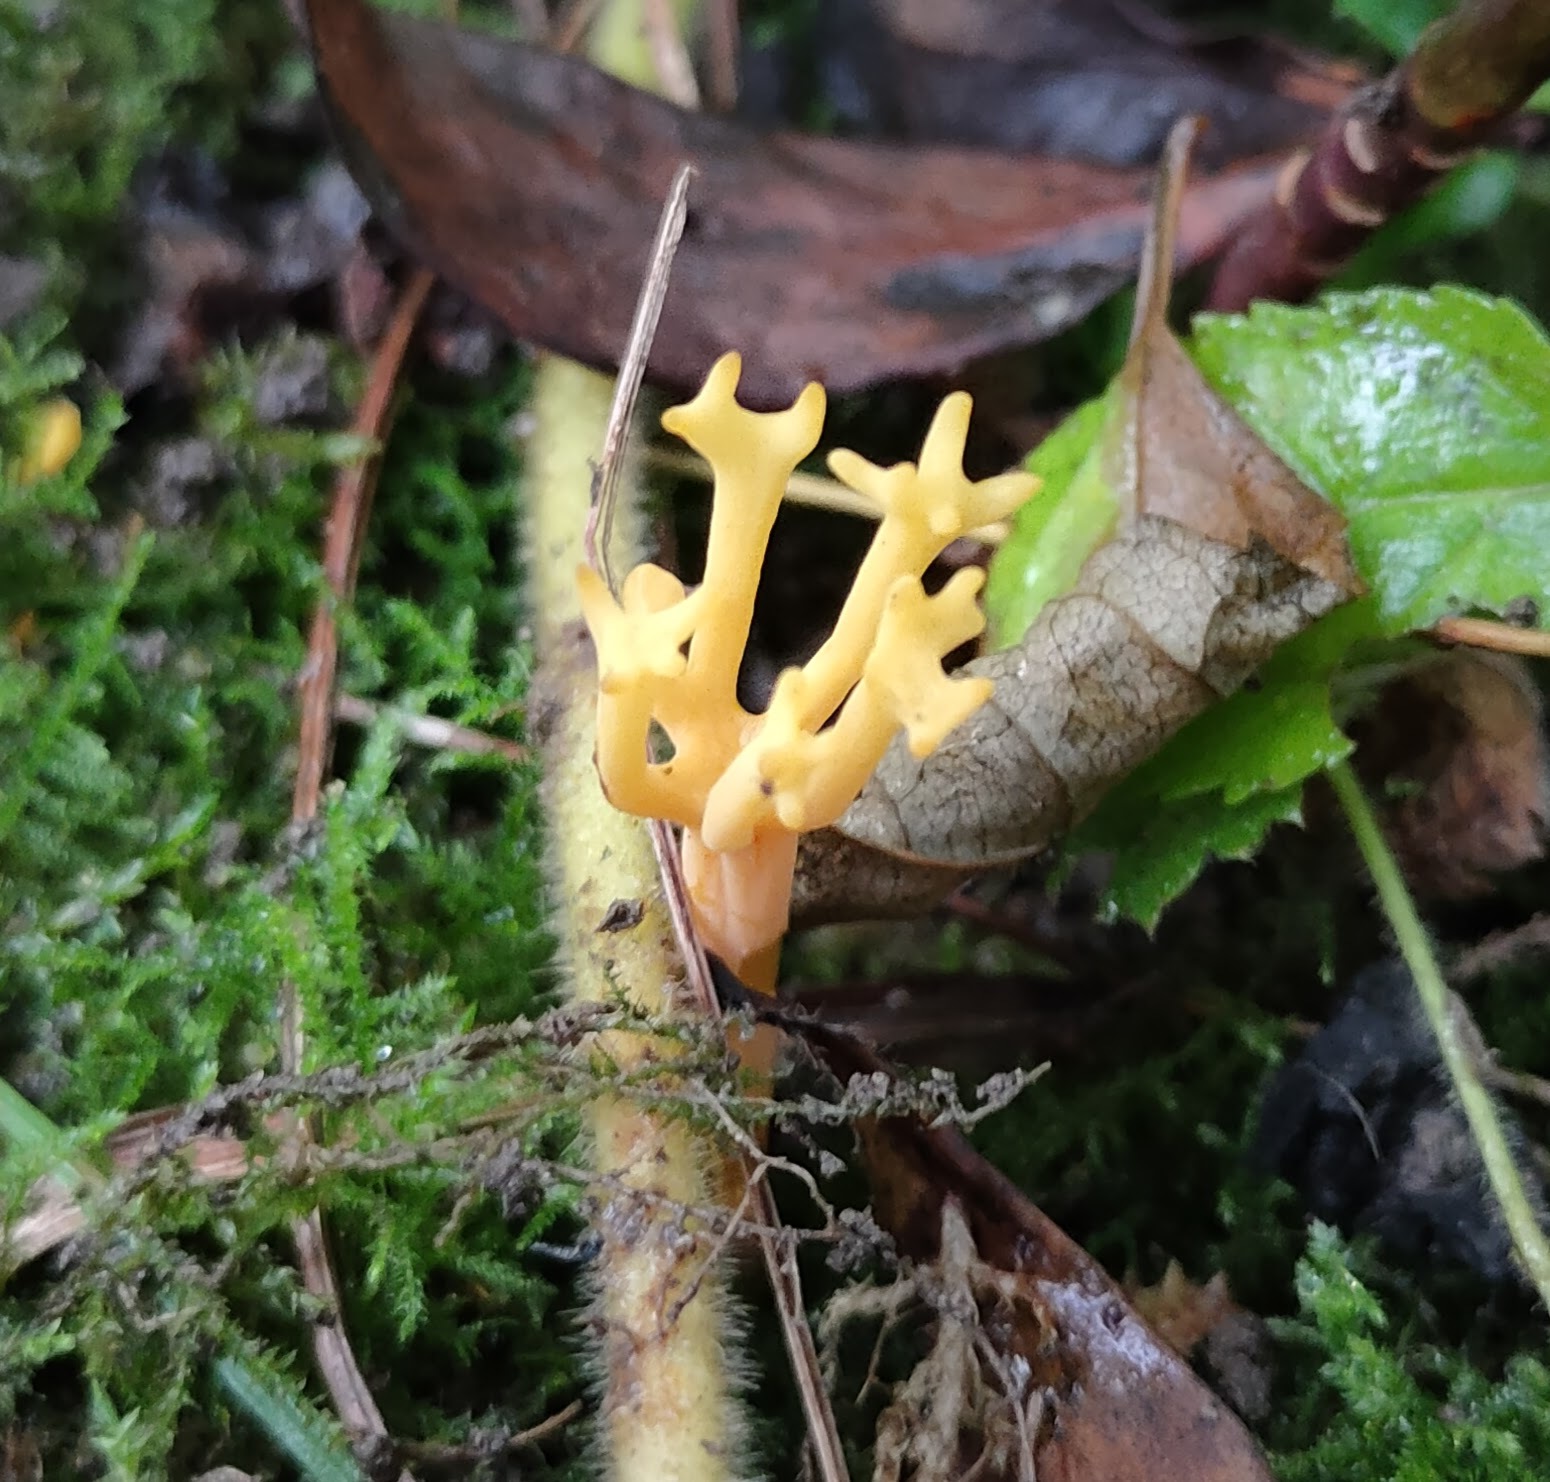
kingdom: Fungi
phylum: Basidiomycota
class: Agaricomycetes
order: Agaricales
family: Clavariaceae
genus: Clavulinopsis
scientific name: Clavulinopsis corniculata
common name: Meadow coral
